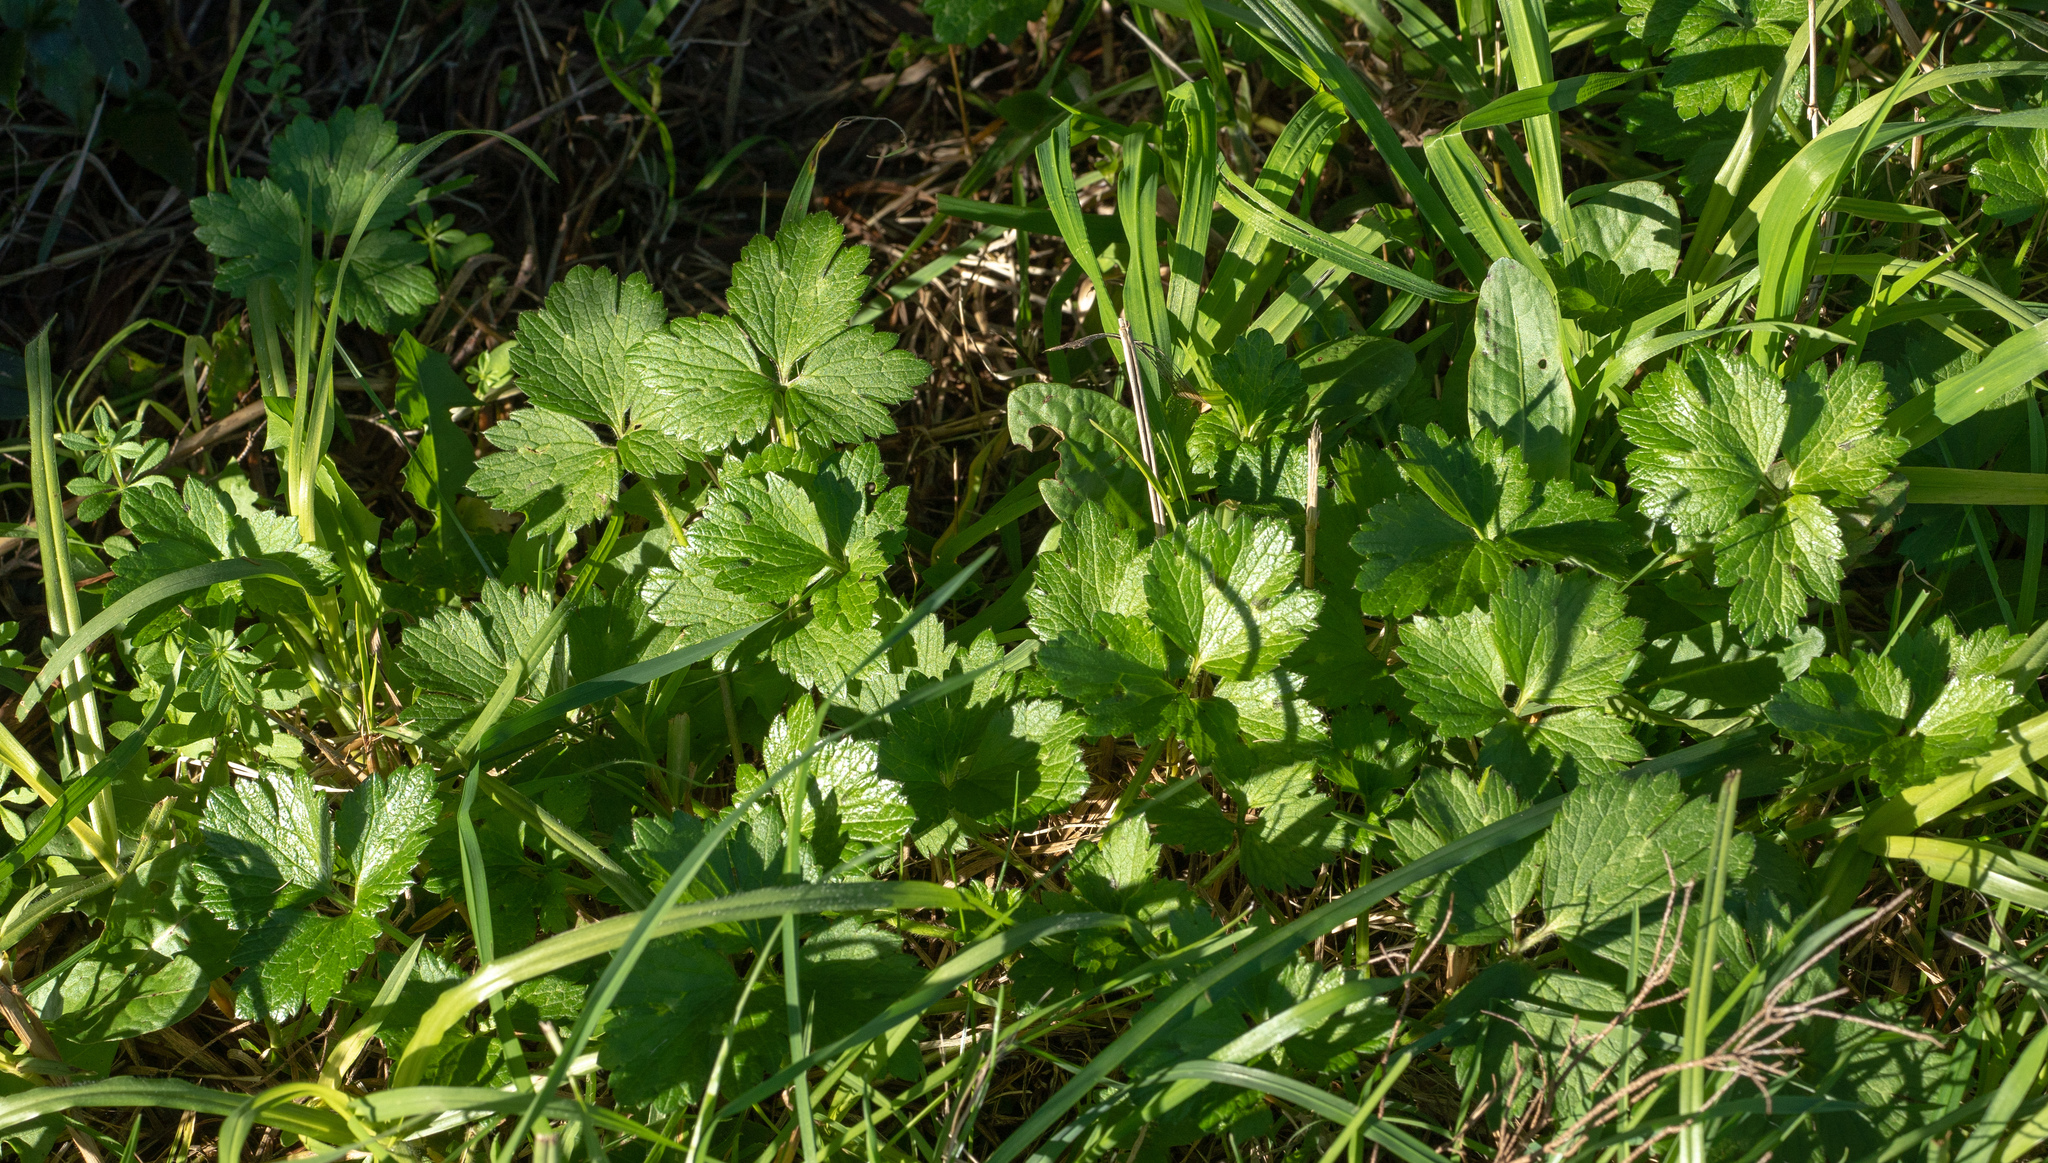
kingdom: Plantae
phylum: Tracheophyta
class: Magnoliopsida
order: Ranunculales
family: Ranunculaceae
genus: Ranunculus
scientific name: Ranunculus repens
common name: Creeping buttercup
